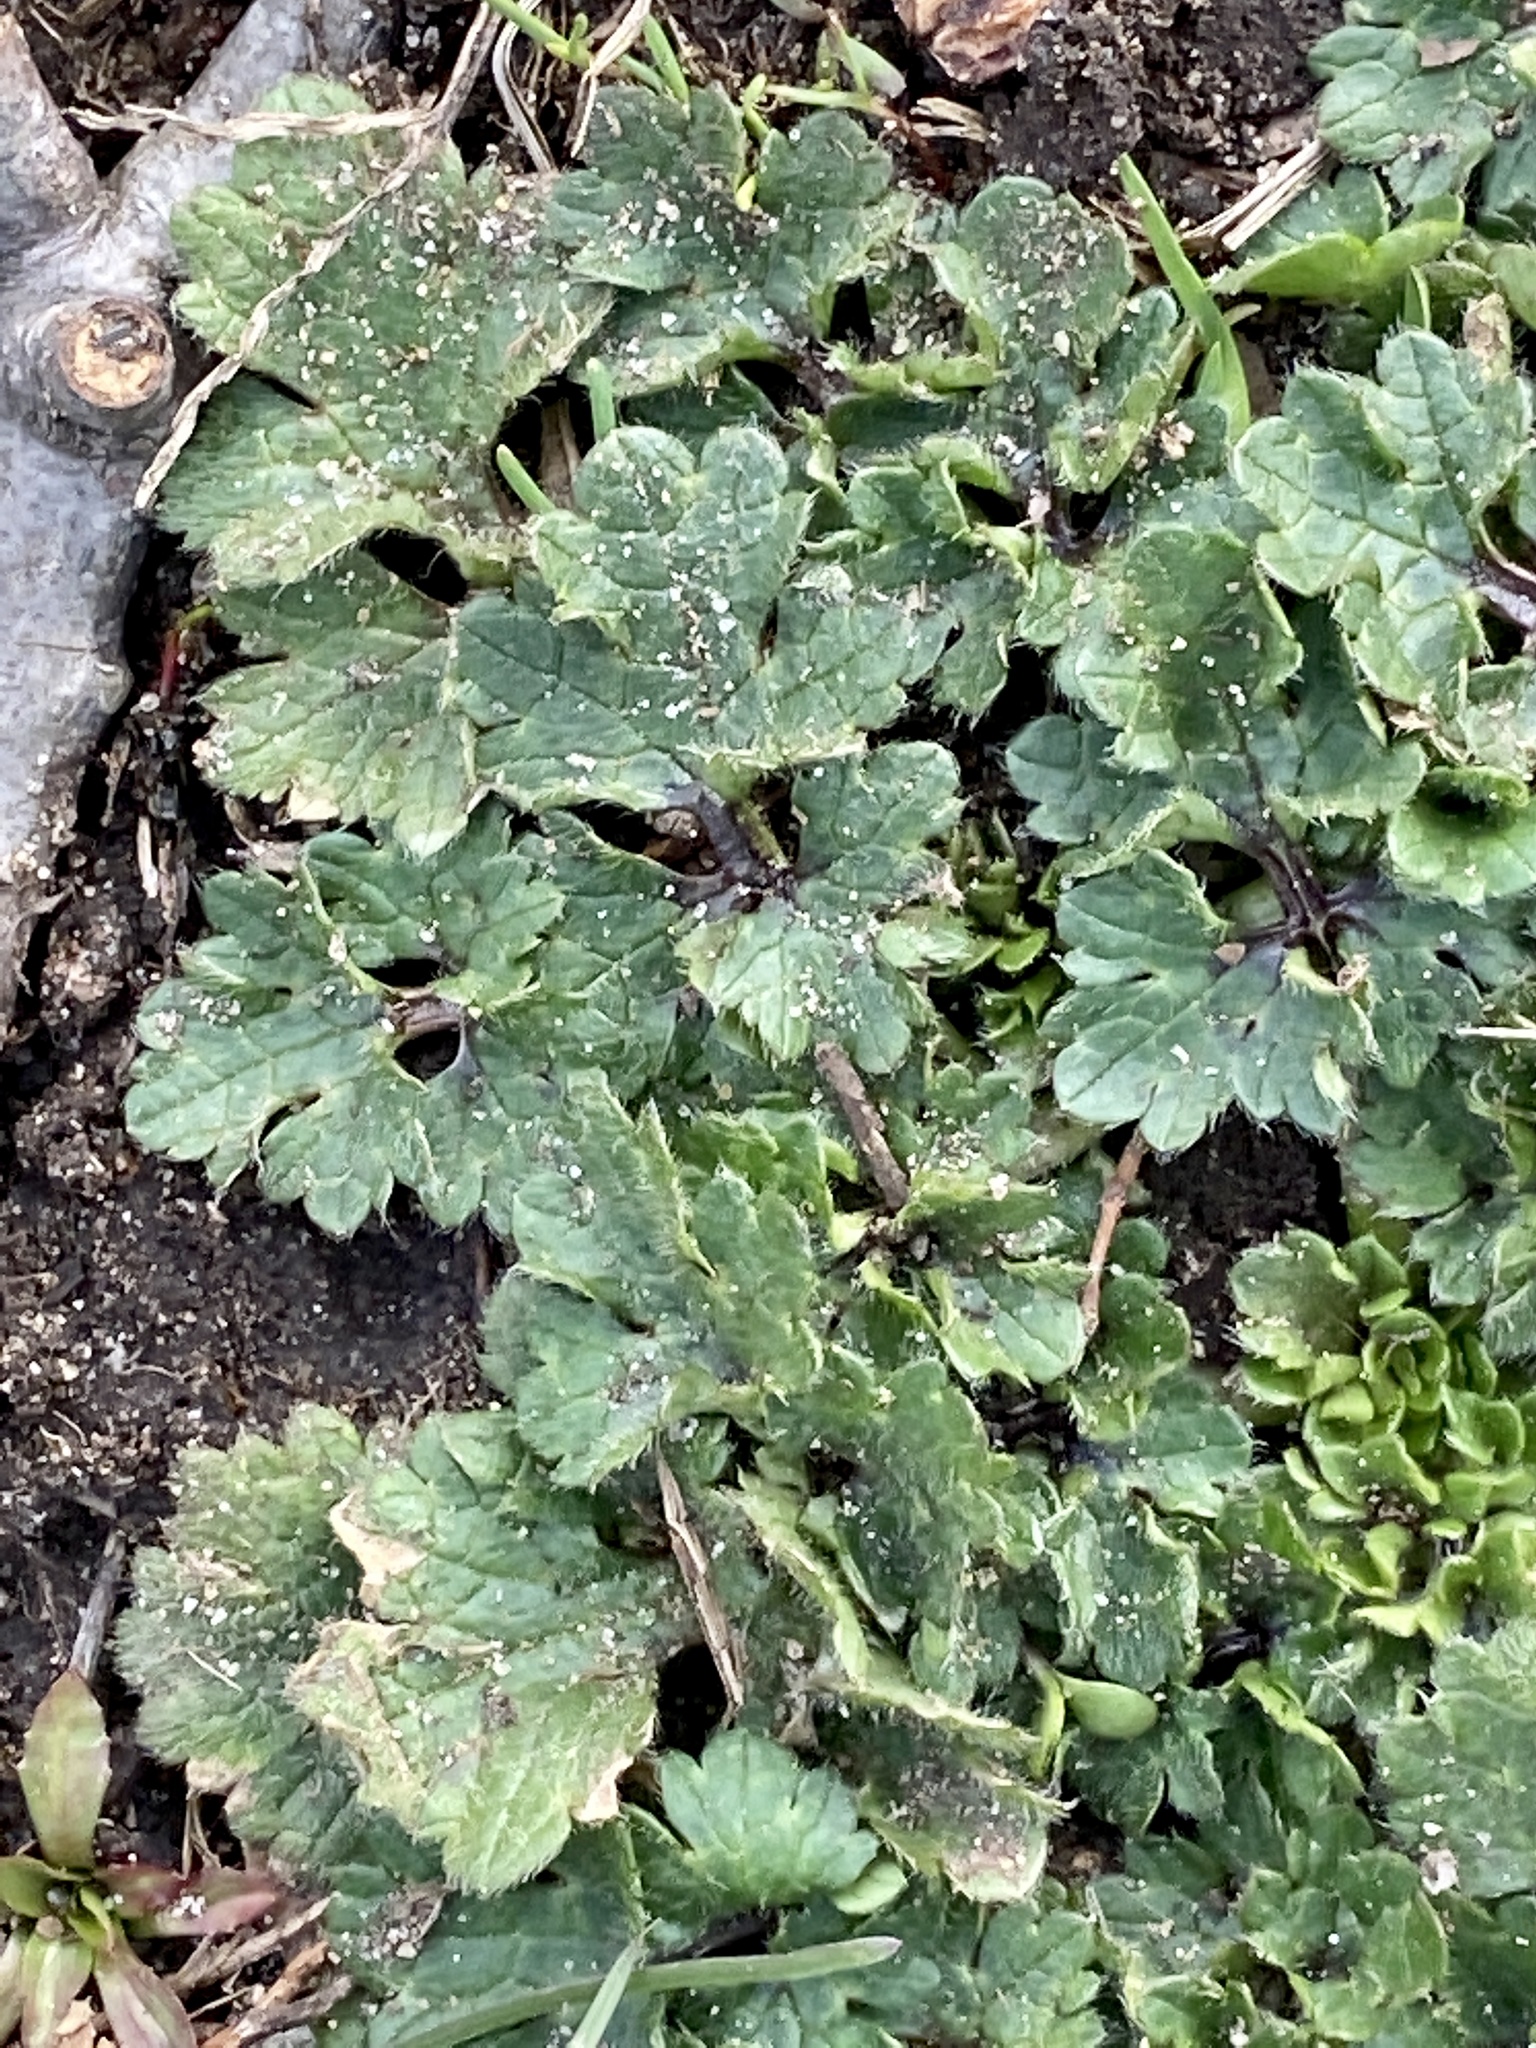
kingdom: Plantae
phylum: Tracheophyta
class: Magnoliopsida
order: Ranunculales
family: Ranunculaceae
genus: Ranunculus
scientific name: Ranunculus bulbosus
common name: Bulbous buttercup
